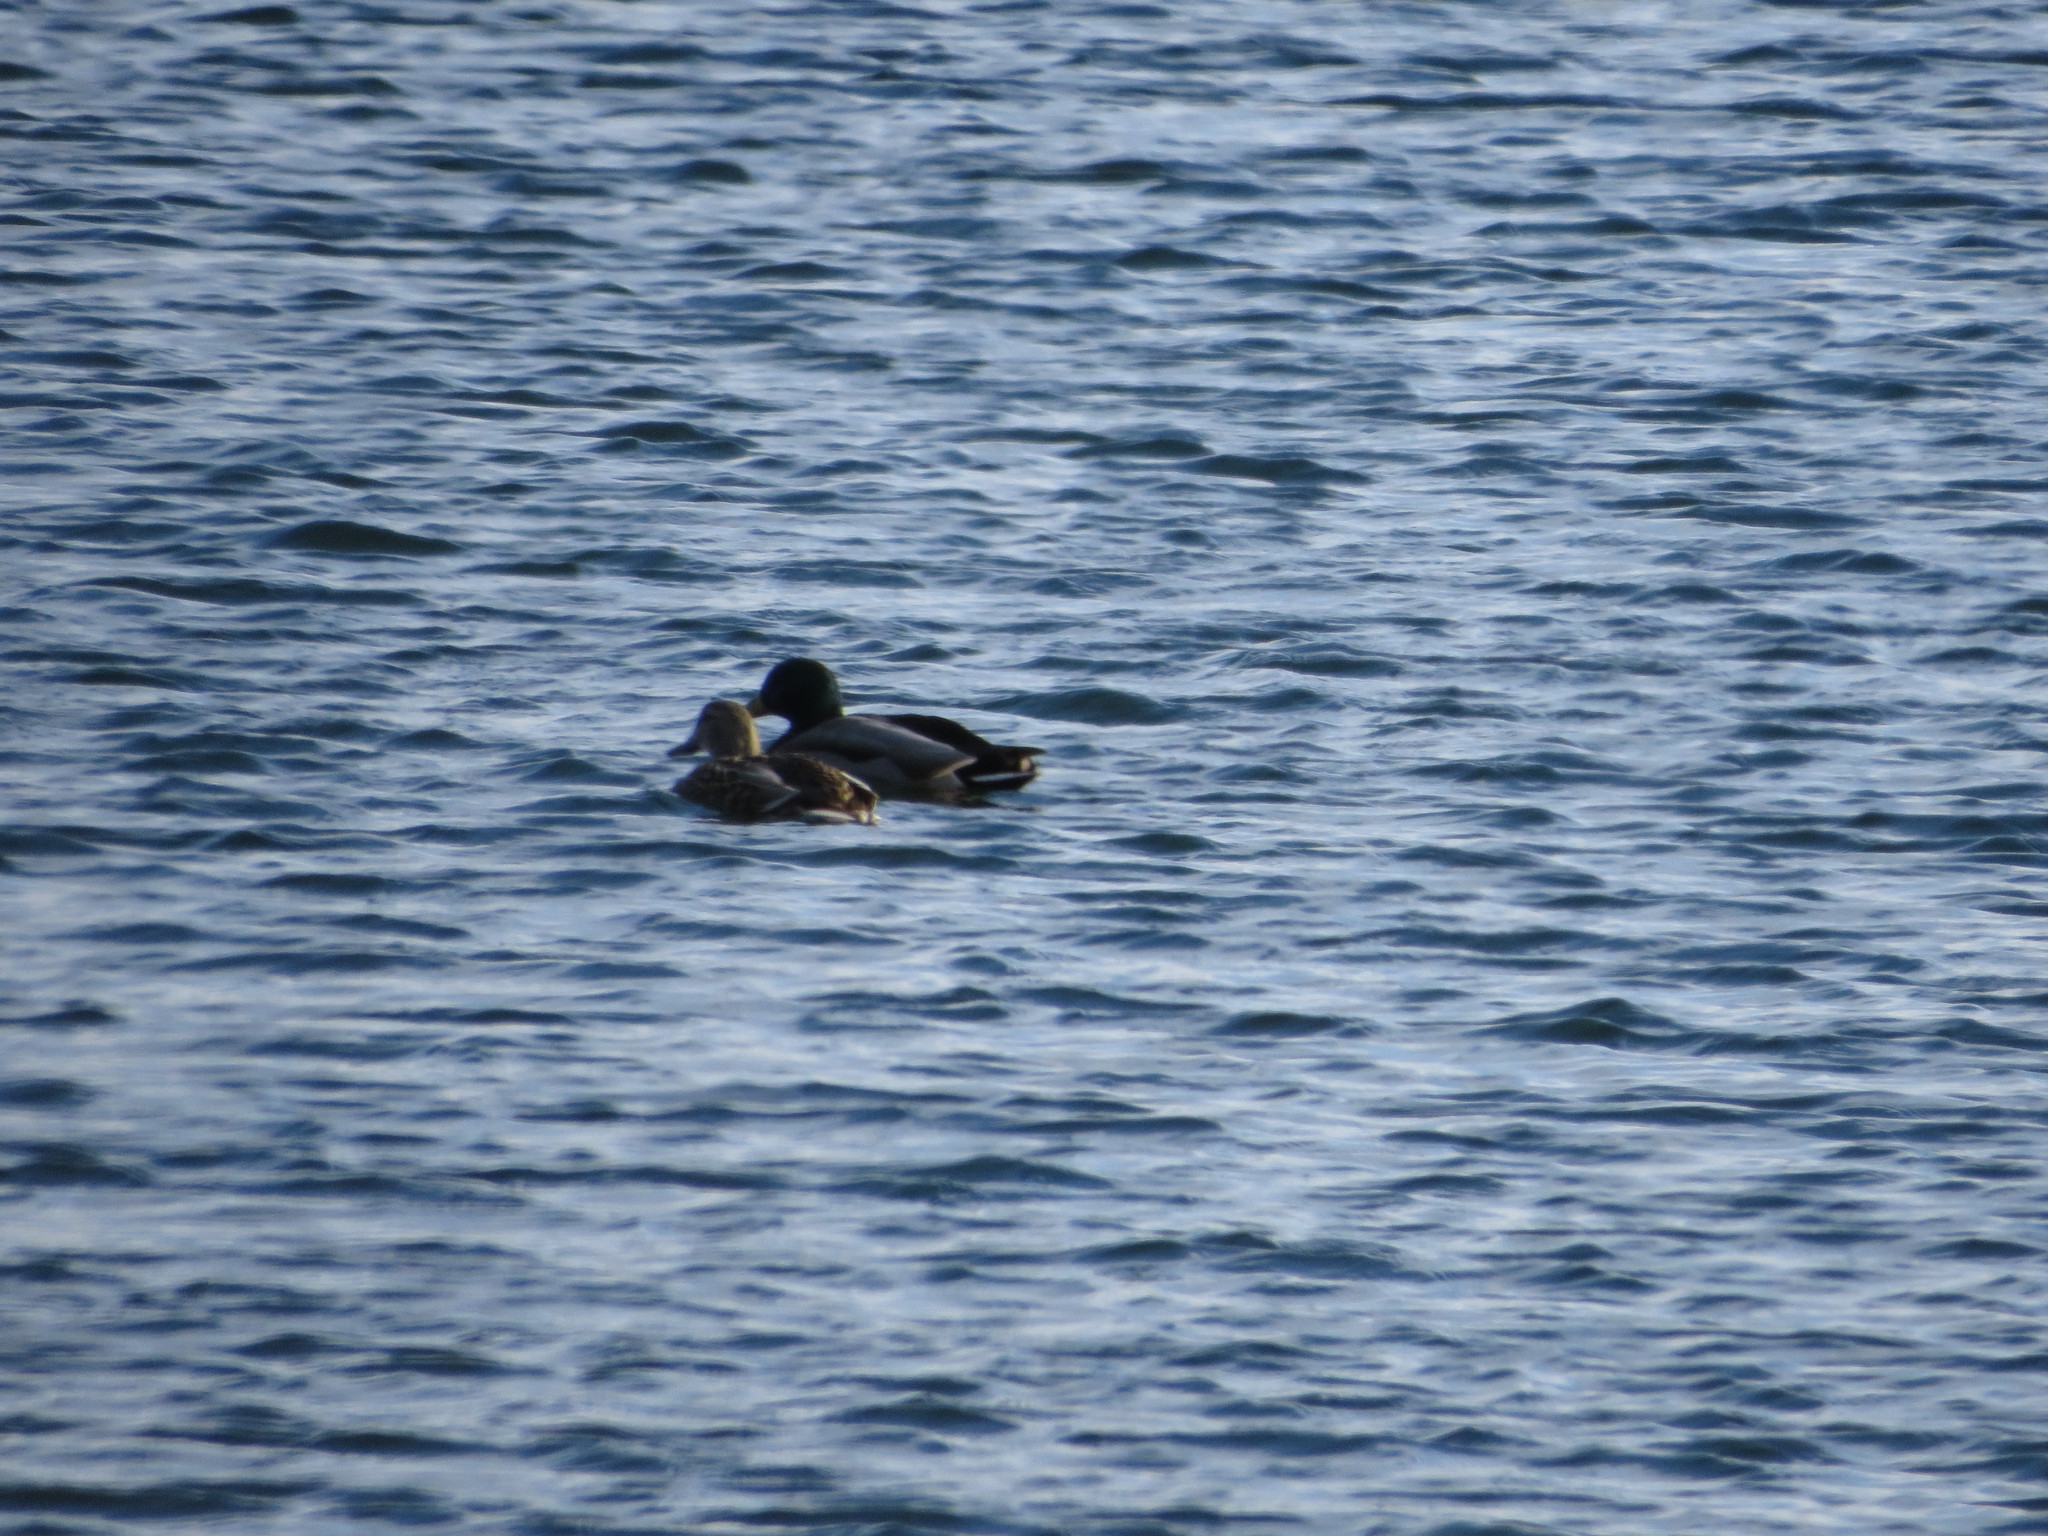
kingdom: Animalia
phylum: Chordata
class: Aves
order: Anseriformes
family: Anatidae
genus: Anas
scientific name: Anas platyrhynchos
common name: Mallard
